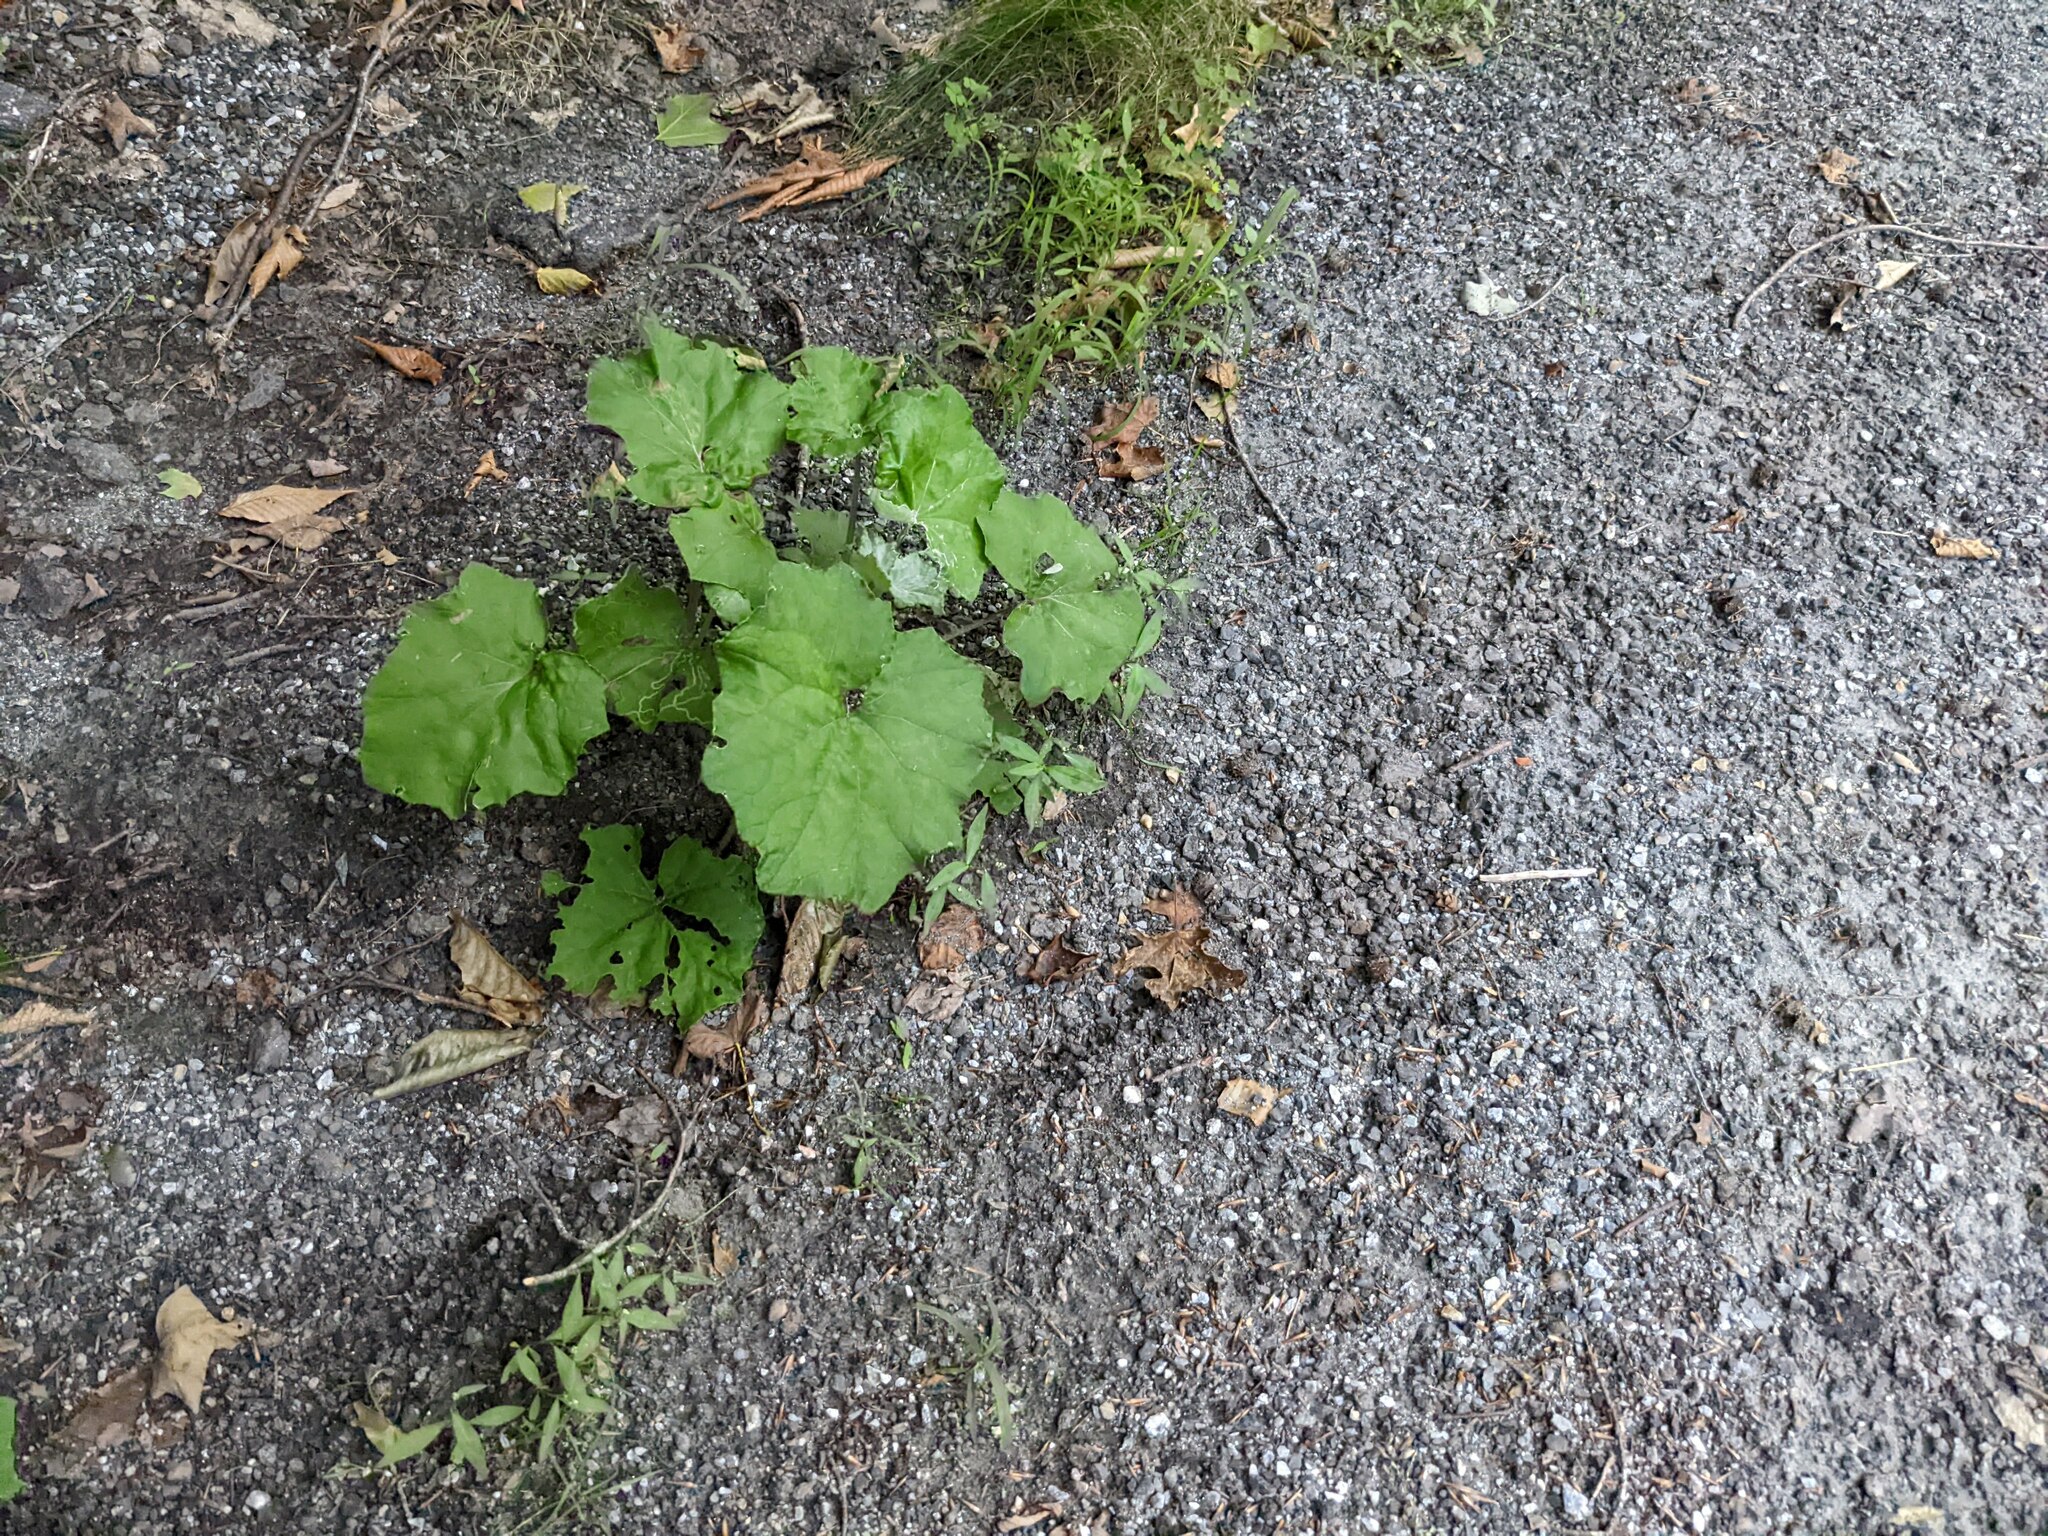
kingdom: Plantae
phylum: Tracheophyta
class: Magnoliopsida
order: Asterales
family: Asteraceae
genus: Tussilago
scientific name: Tussilago farfara
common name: Coltsfoot
